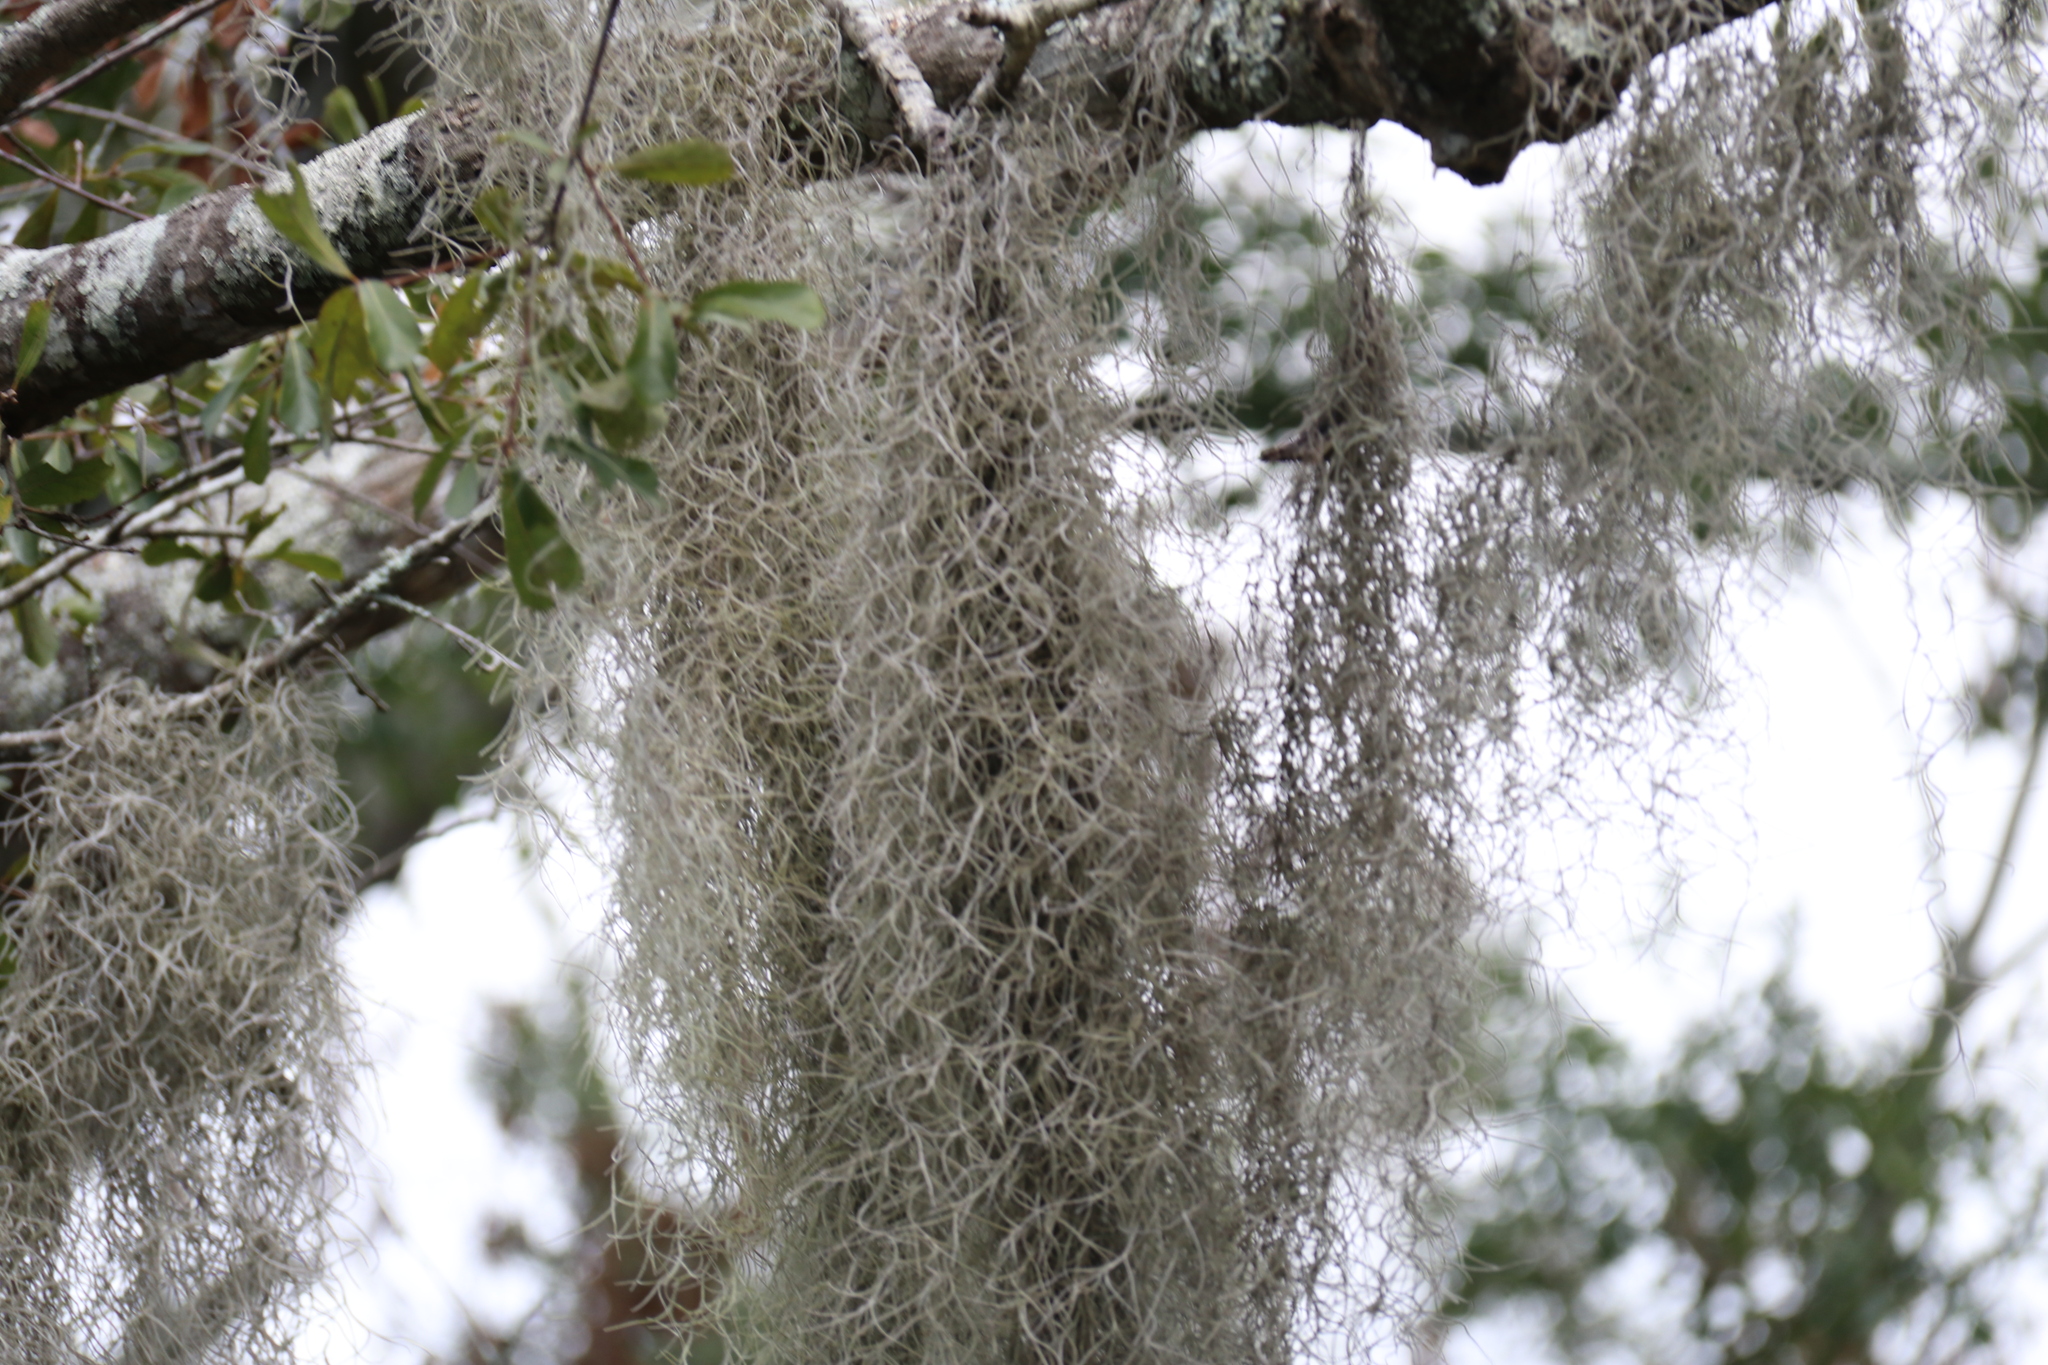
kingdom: Plantae
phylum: Tracheophyta
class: Liliopsida
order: Poales
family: Bromeliaceae
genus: Tillandsia
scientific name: Tillandsia usneoides
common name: Spanish moss
